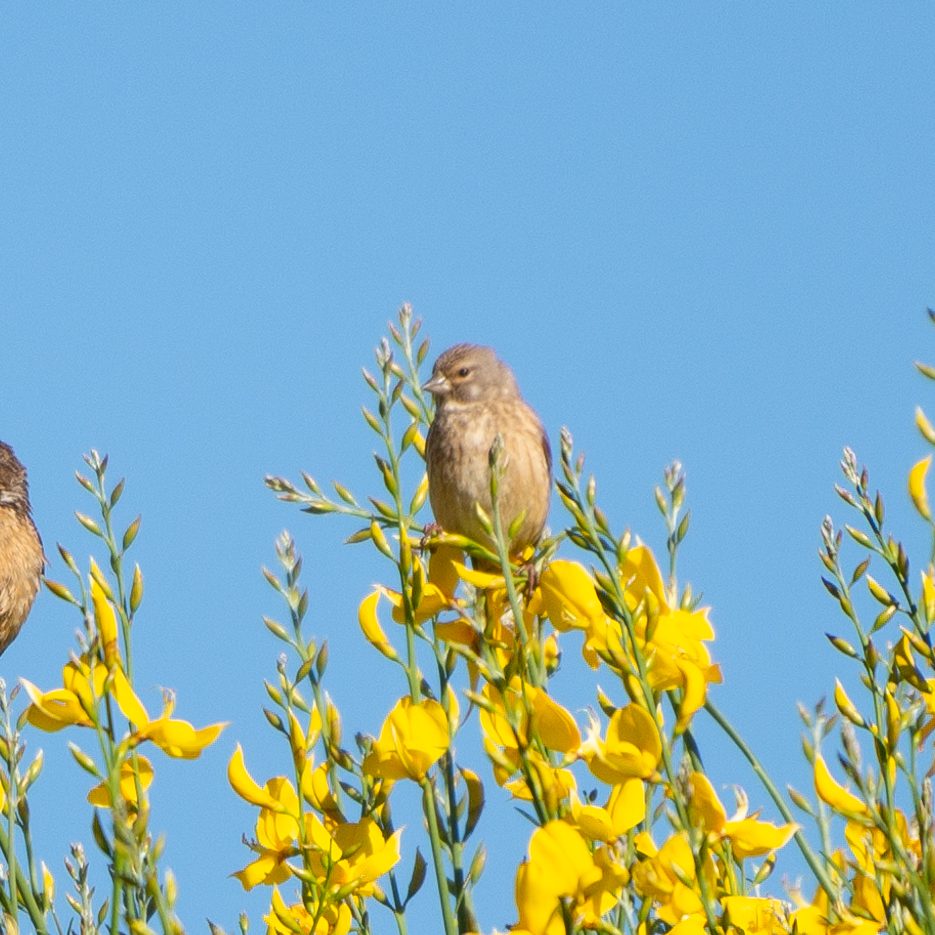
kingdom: Animalia
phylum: Chordata
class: Aves
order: Passeriformes
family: Fringillidae
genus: Linaria
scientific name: Linaria cannabina
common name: Common linnet
